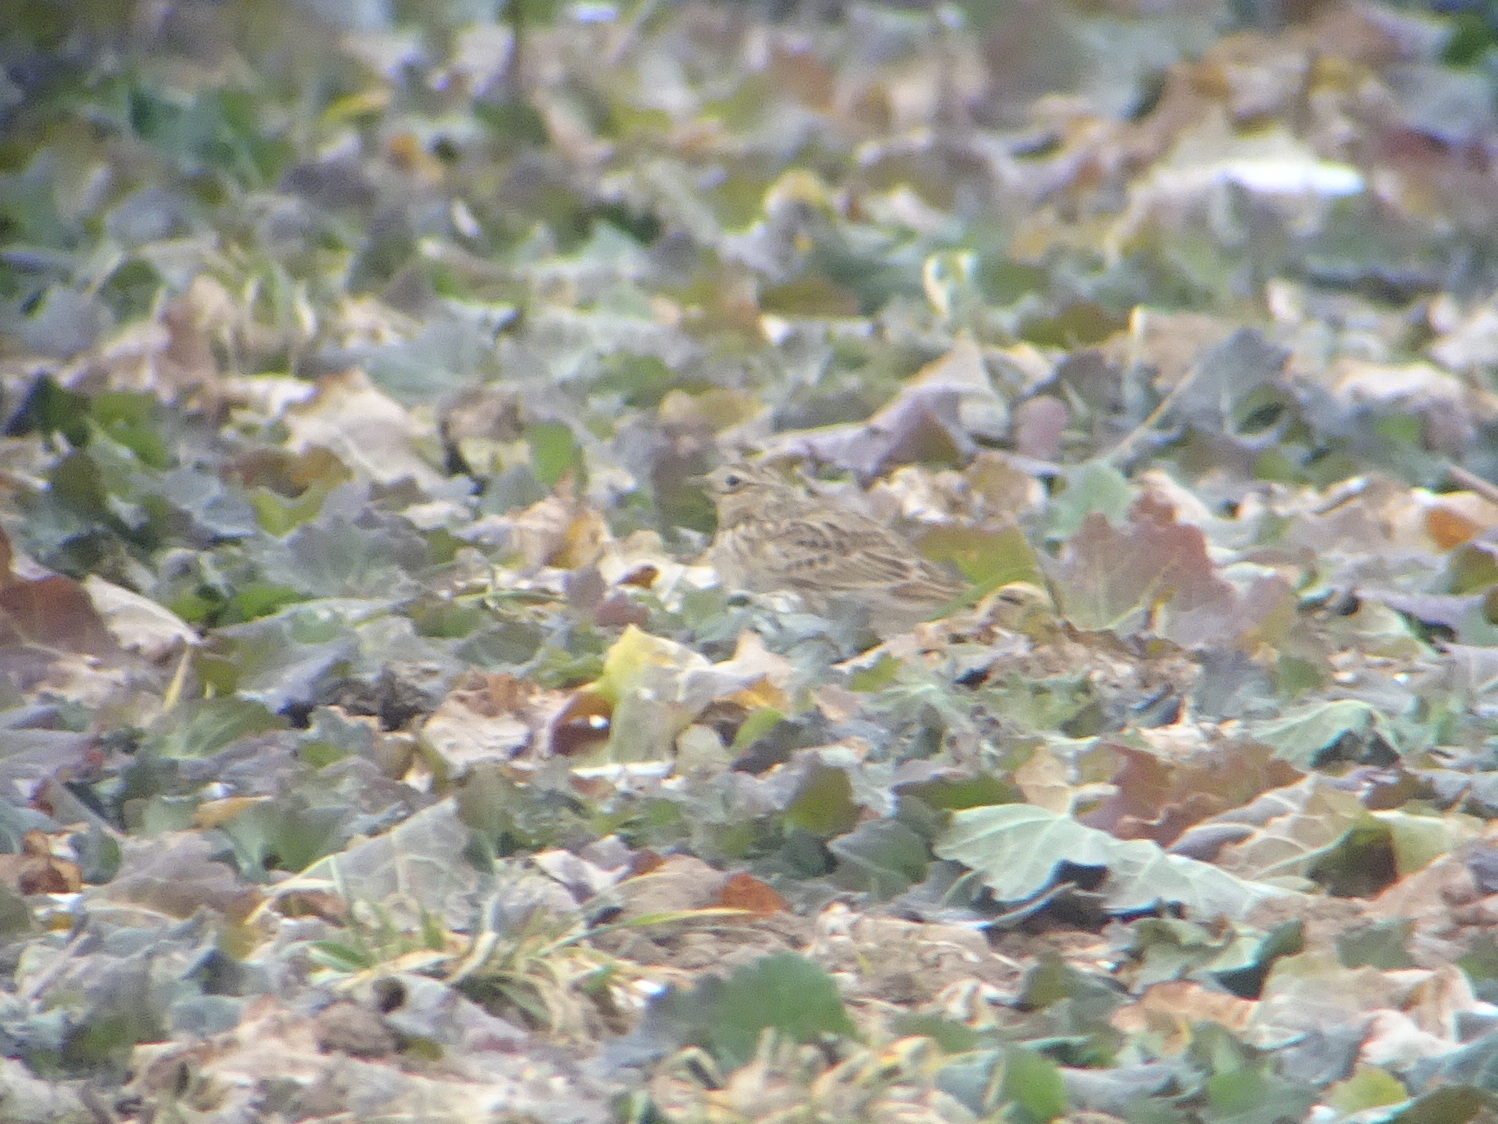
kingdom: Animalia
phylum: Chordata
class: Aves
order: Passeriformes
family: Alaudidae
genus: Alauda
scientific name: Alauda arvensis
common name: Eurasian skylark
